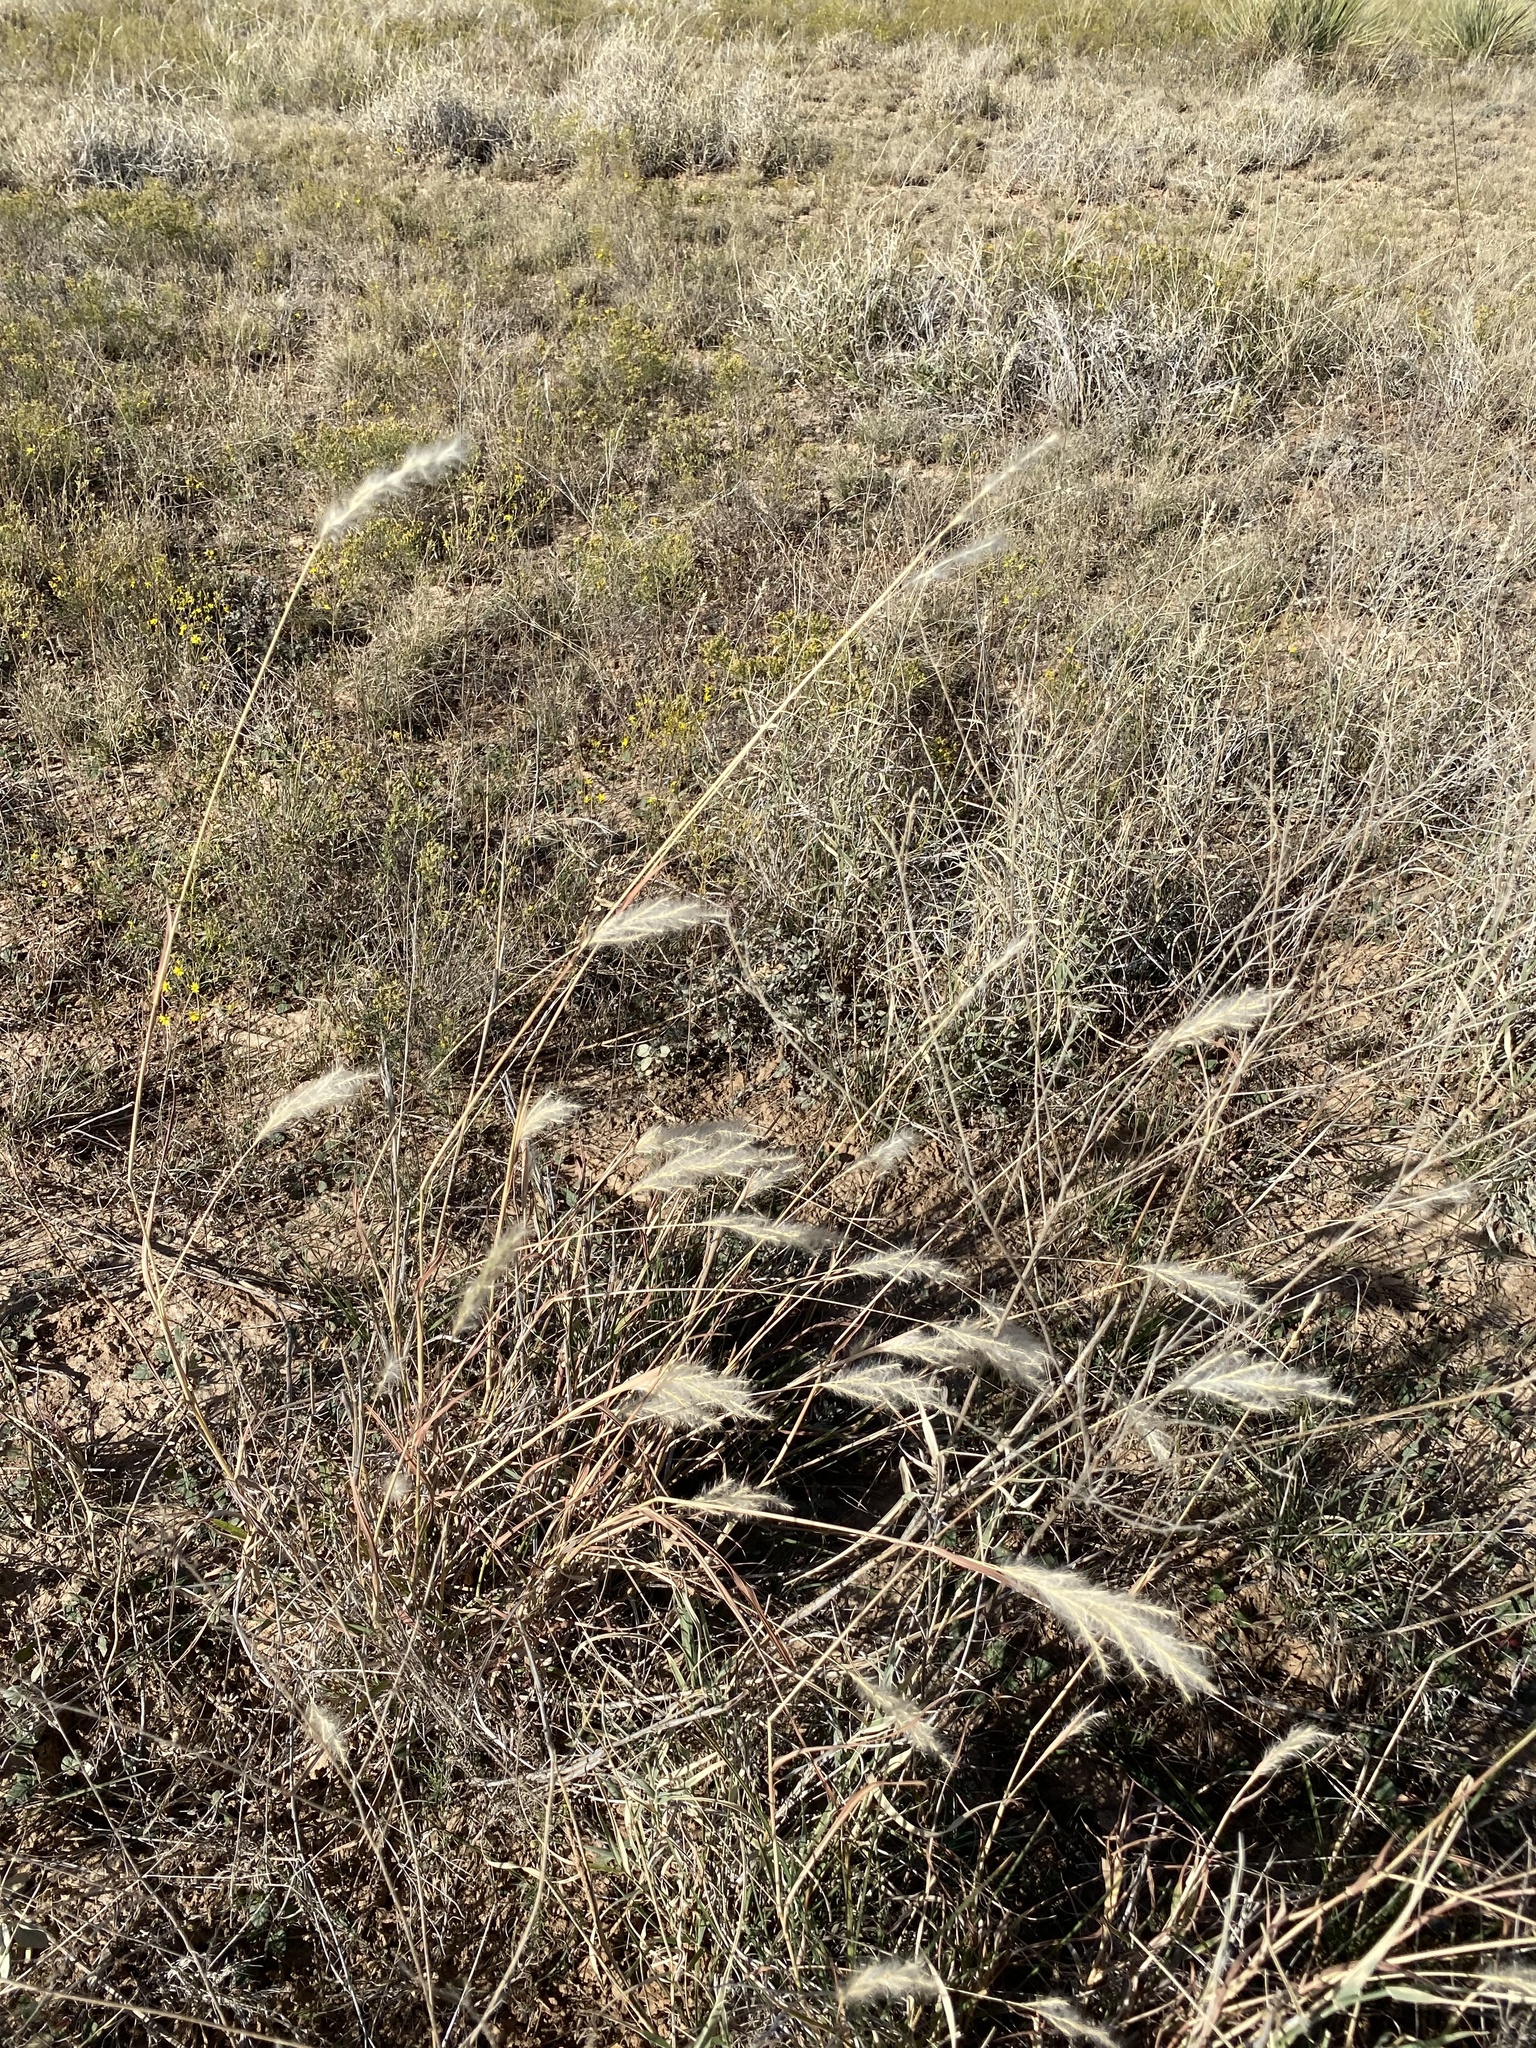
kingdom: Plantae
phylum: Tracheophyta
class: Liliopsida
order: Poales
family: Poaceae
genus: Bothriochloa
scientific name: Bothriochloa torreyana
